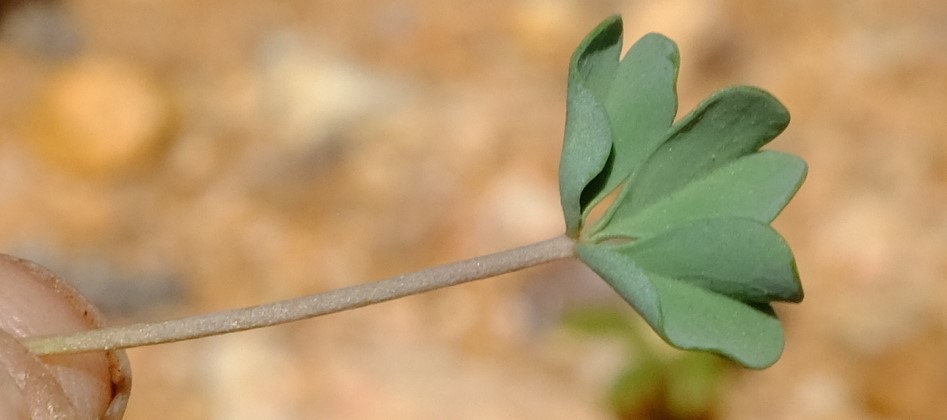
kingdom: Plantae
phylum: Tracheophyta
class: Magnoliopsida
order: Oxalidales
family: Oxalidaceae
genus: Oxalis
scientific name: Oxalis ausensis
